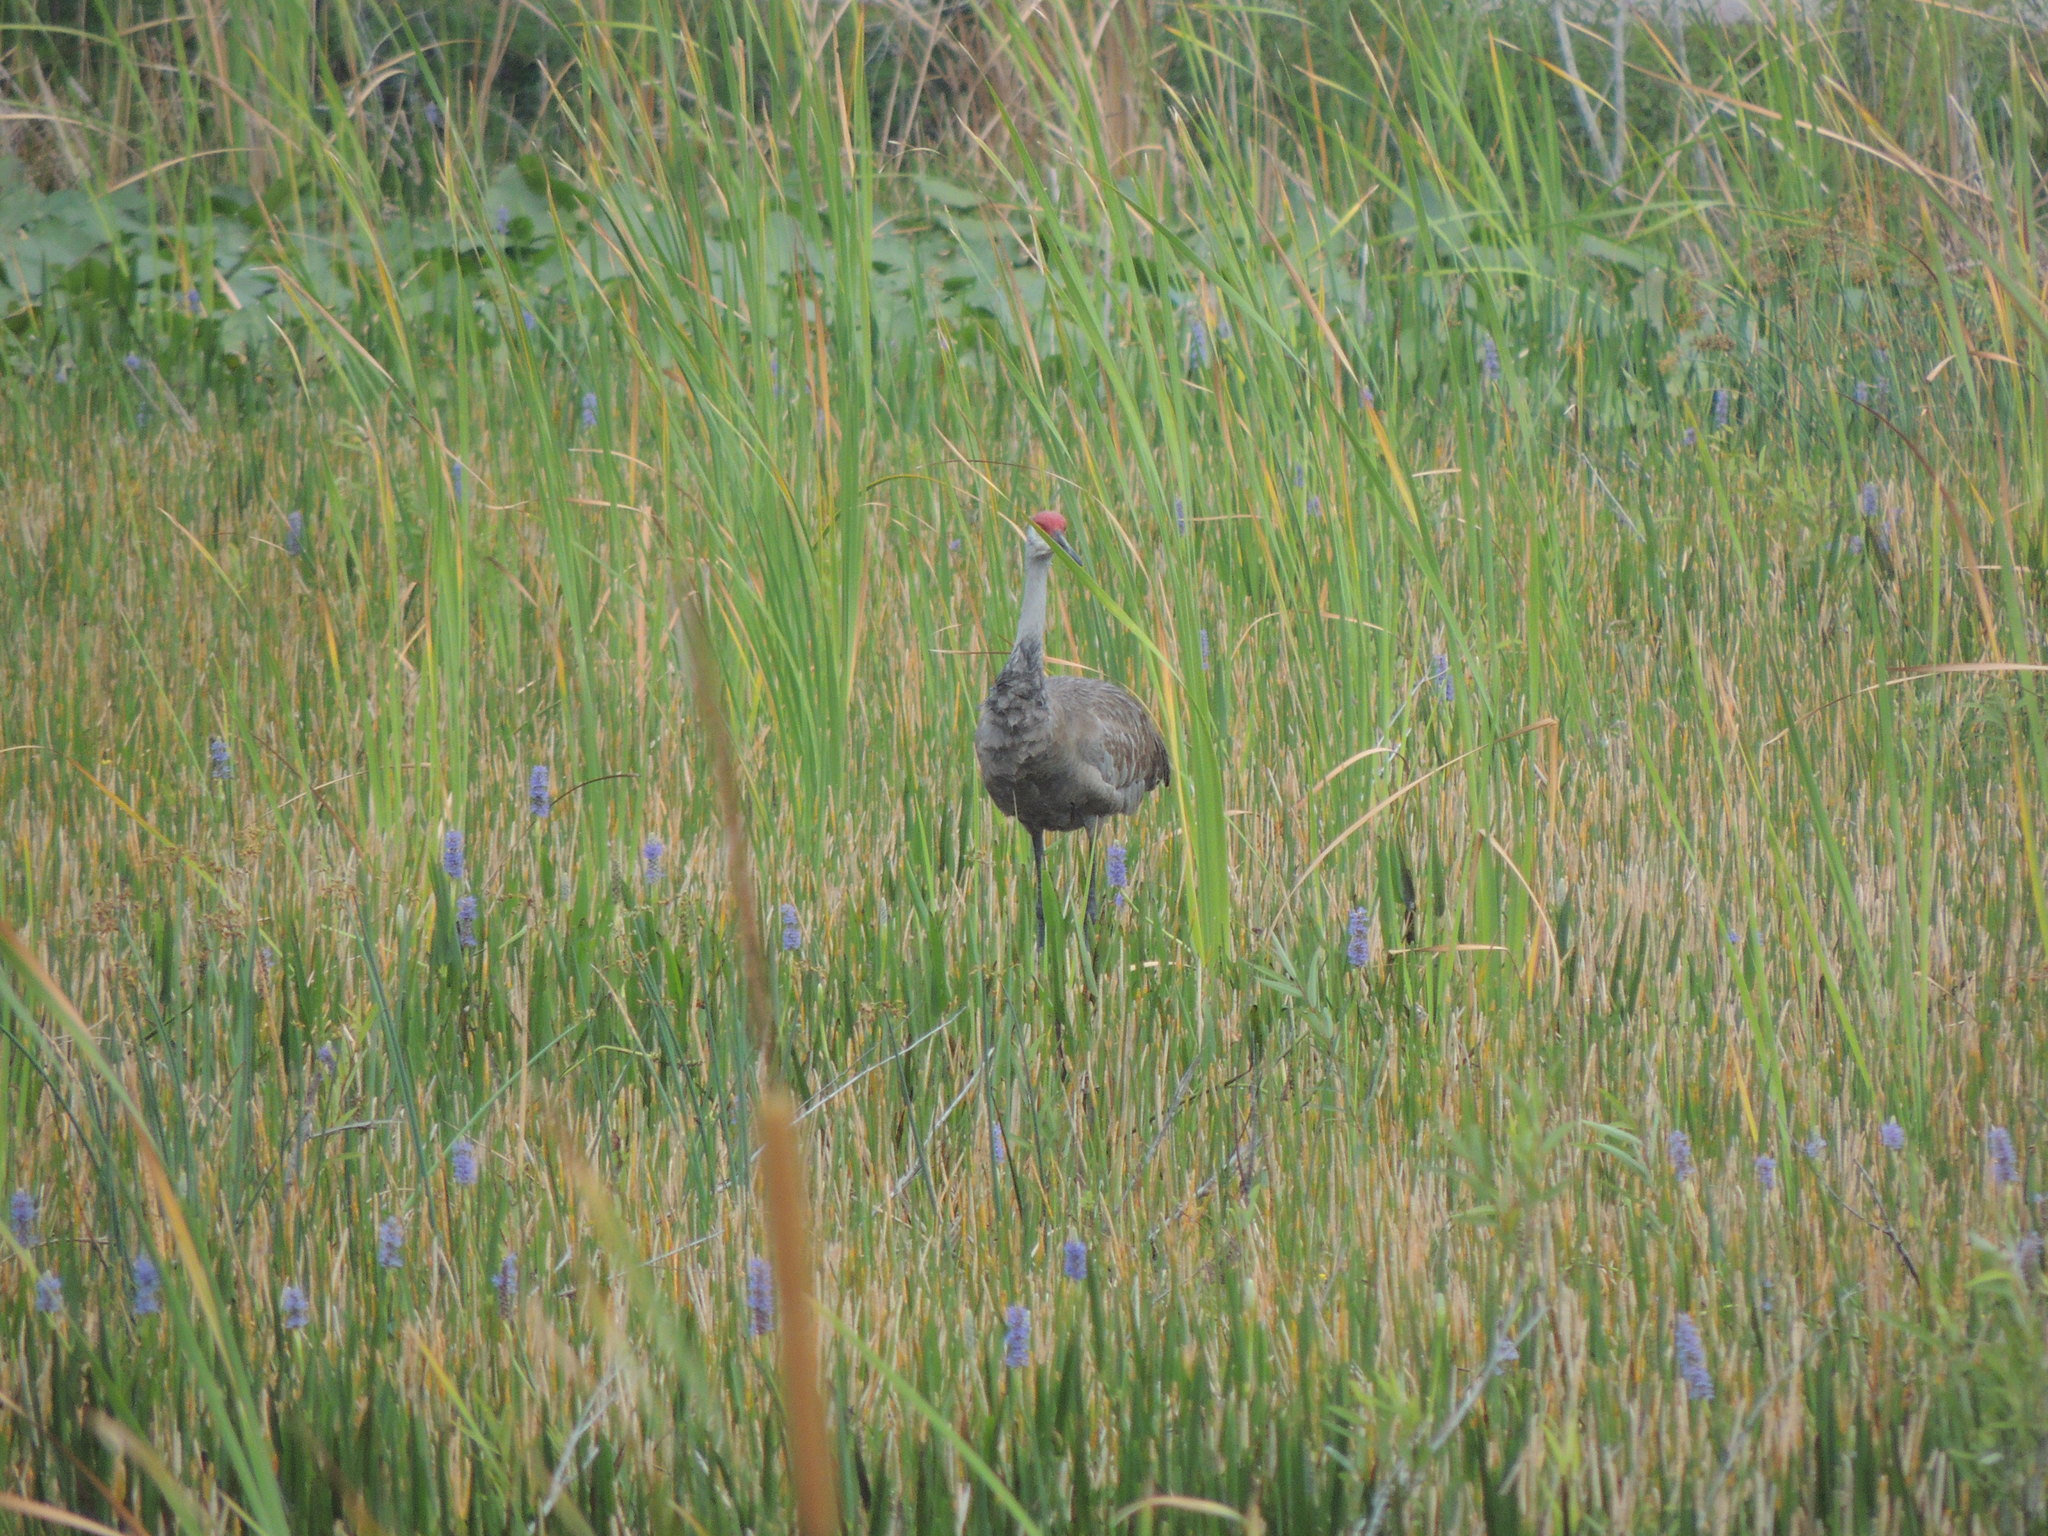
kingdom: Animalia
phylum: Chordata
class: Aves
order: Gruiformes
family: Gruidae
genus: Grus
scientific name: Grus canadensis
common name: Sandhill crane
